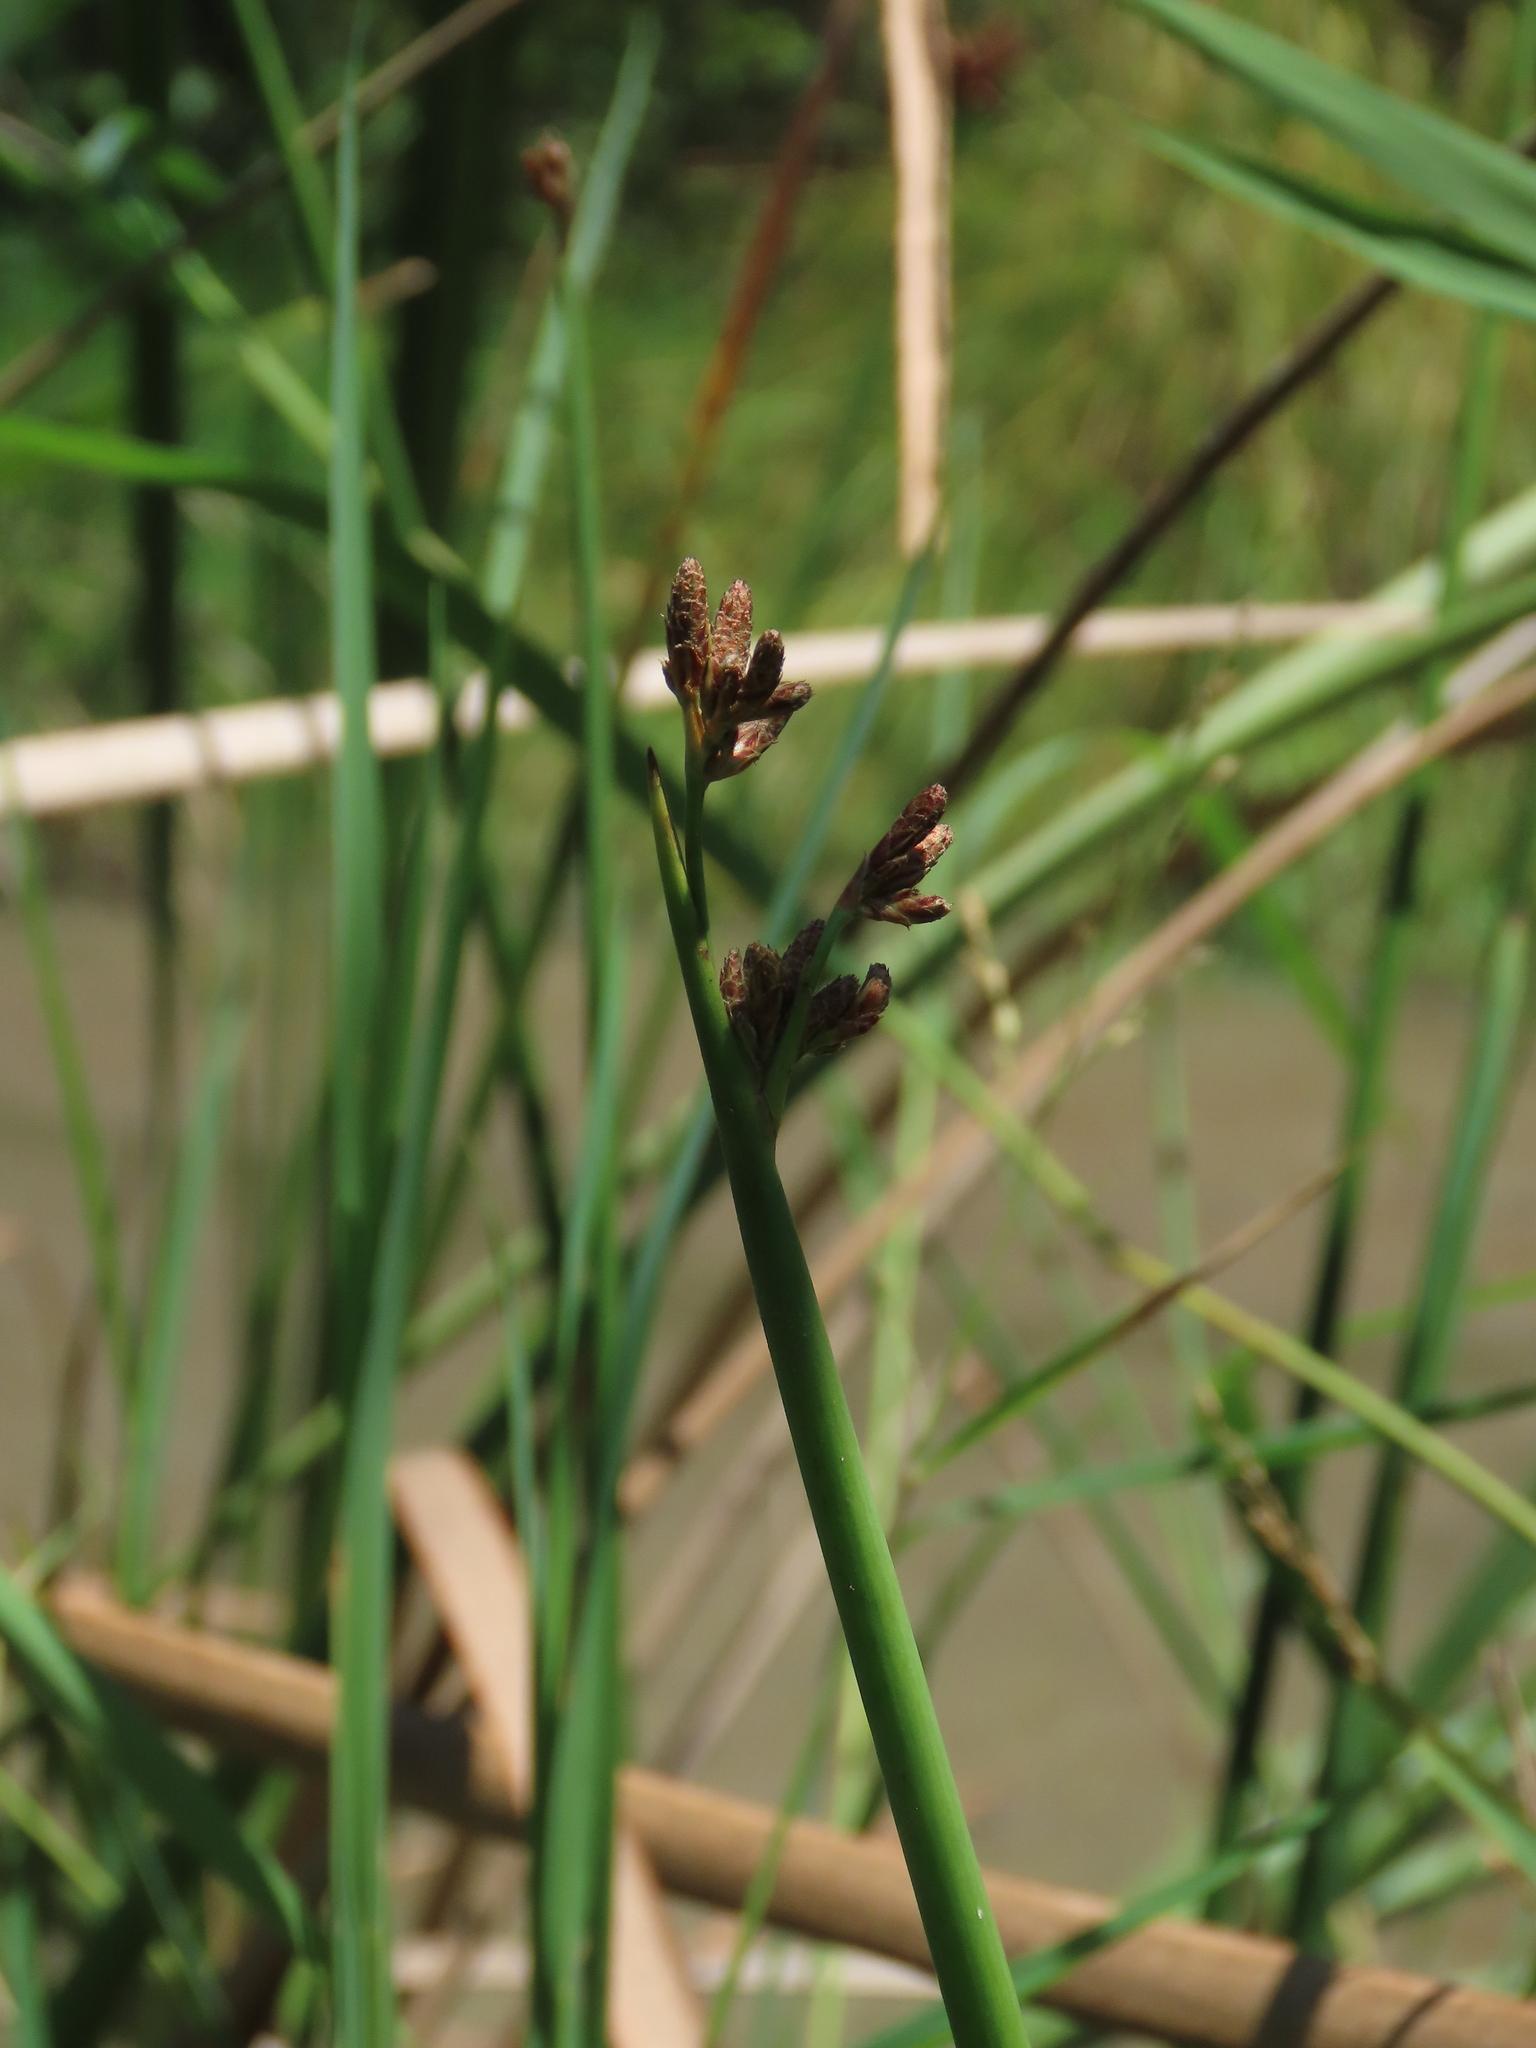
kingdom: Plantae
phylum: Tracheophyta
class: Liliopsida
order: Poales
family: Cyperaceae
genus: Schoenoplectus
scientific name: Schoenoplectus tabernaemontani
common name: Grey club-rush
